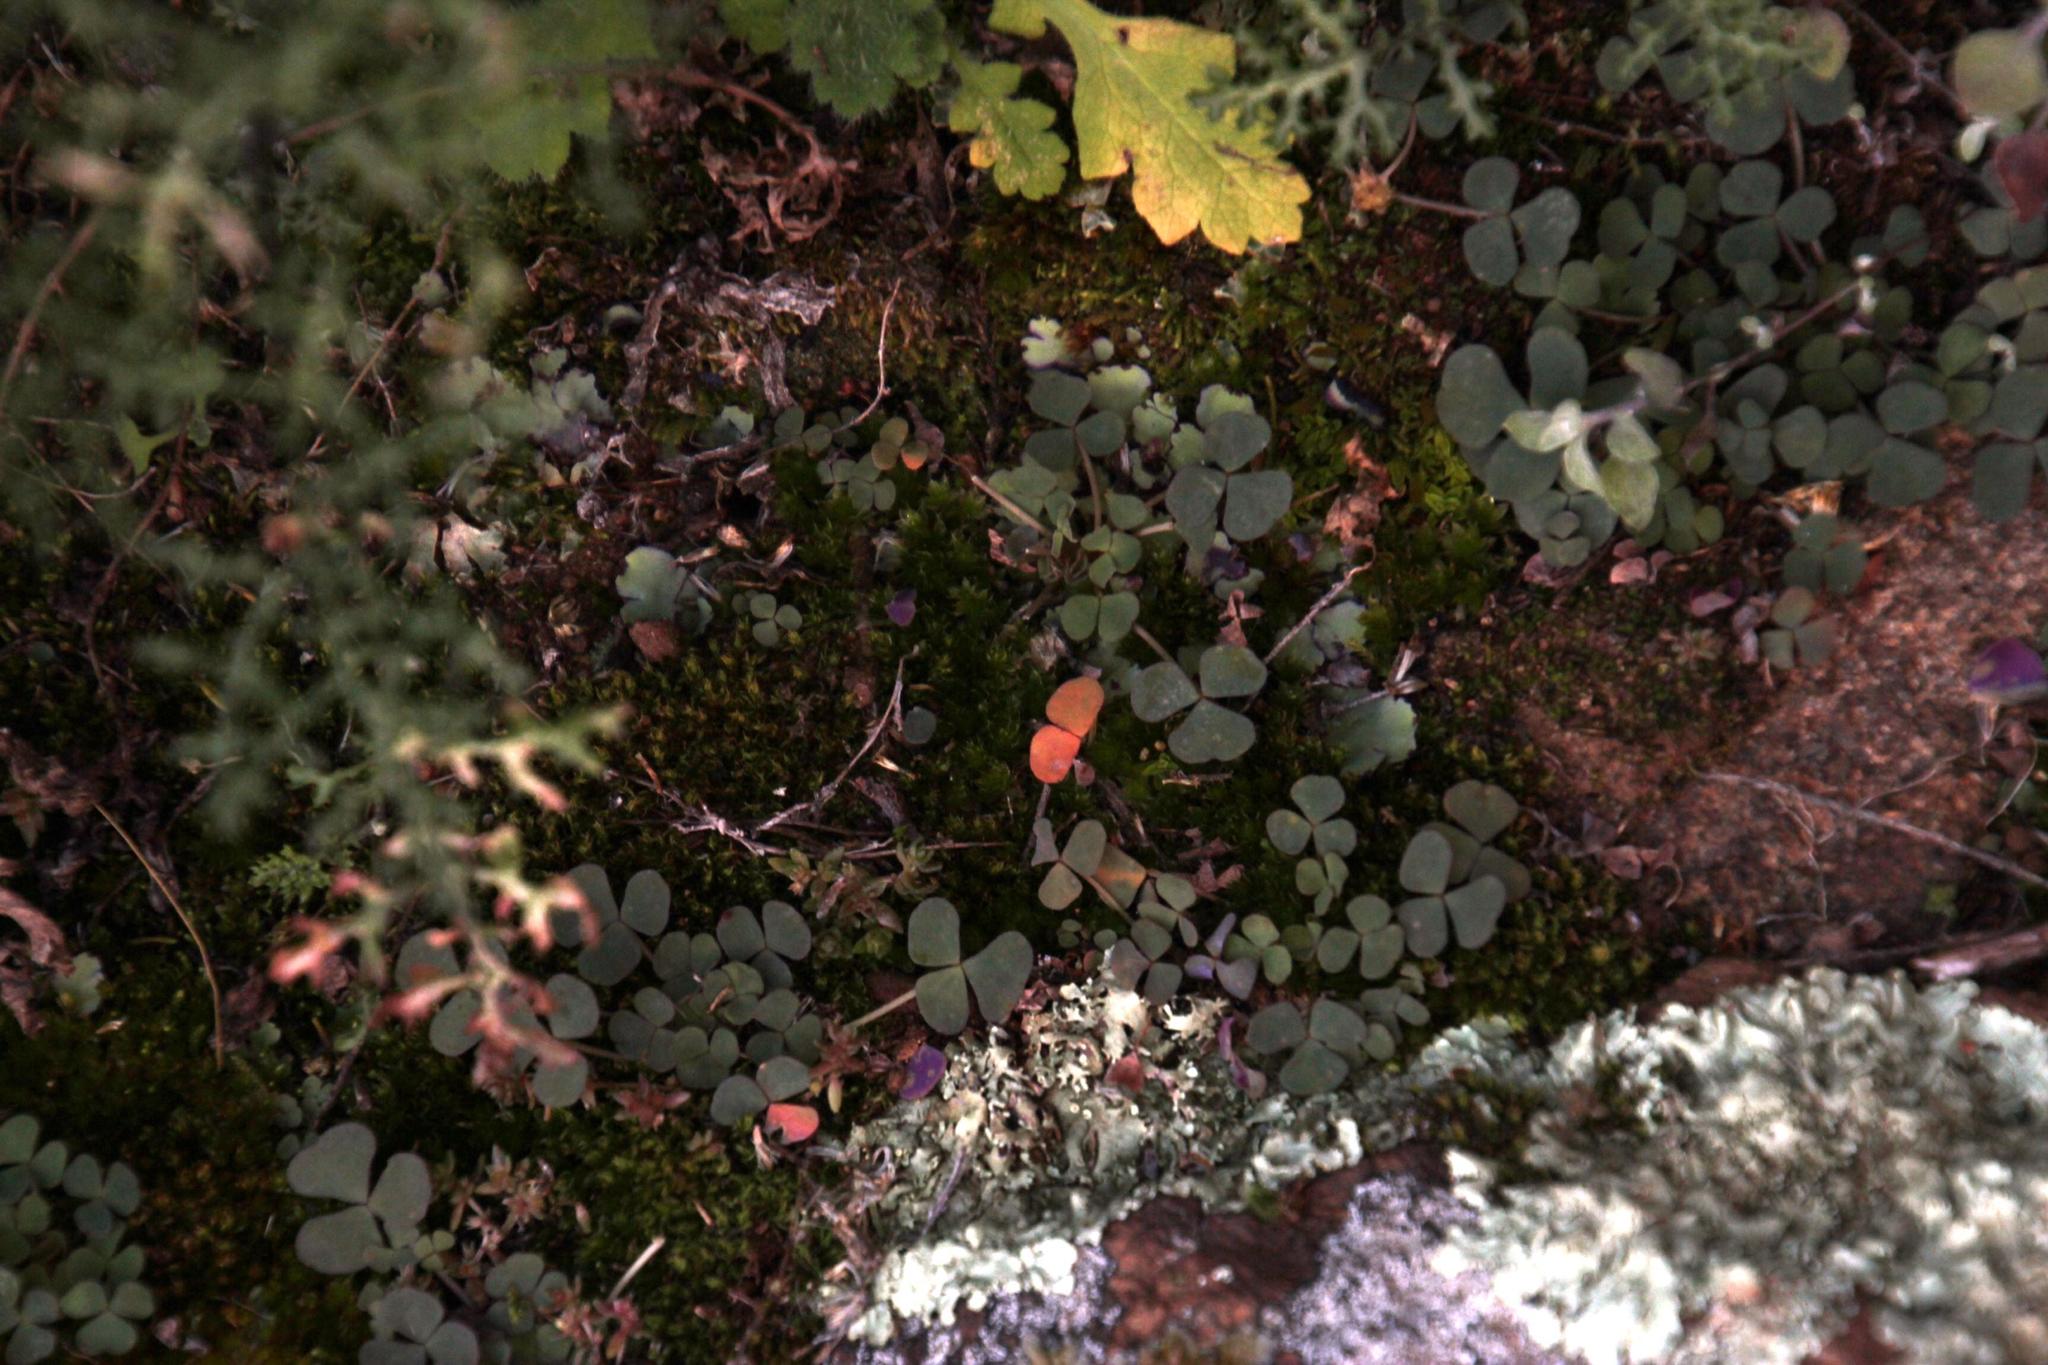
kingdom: Plantae
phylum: Tracheophyta
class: Magnoliopsida
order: Oxalidales
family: Oxalidaceae
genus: Oxalis
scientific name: Oxalis depressa
